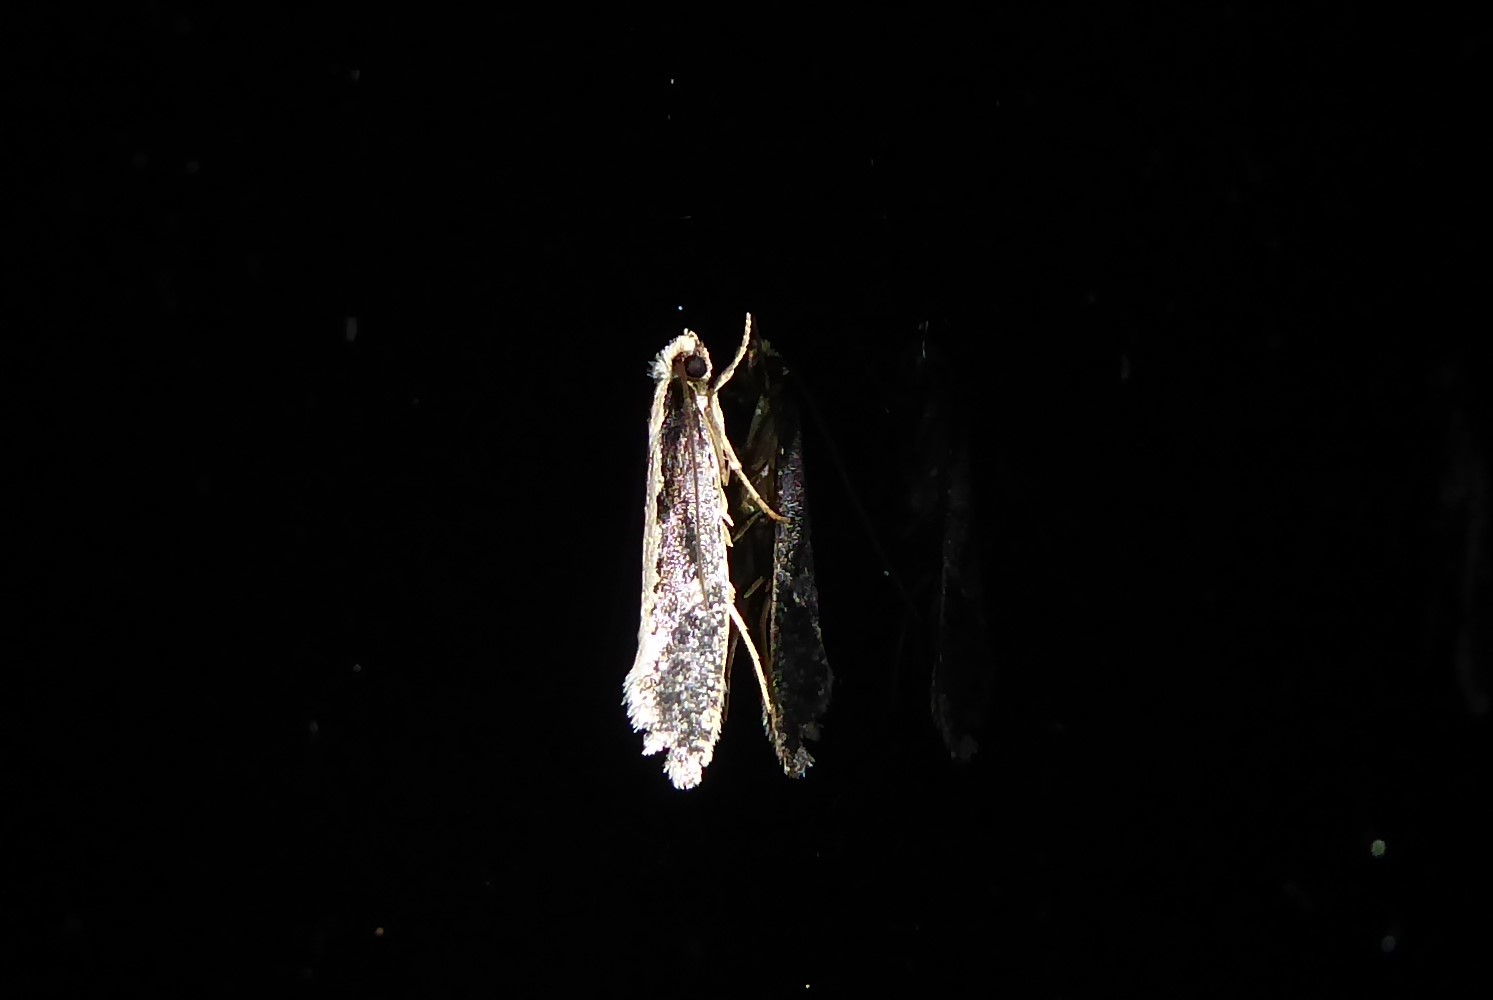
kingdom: Animalia
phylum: Arthropoda
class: Insecta
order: Lepidoptera
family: Tineidae
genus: Monopis
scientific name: Monopis ethelella
